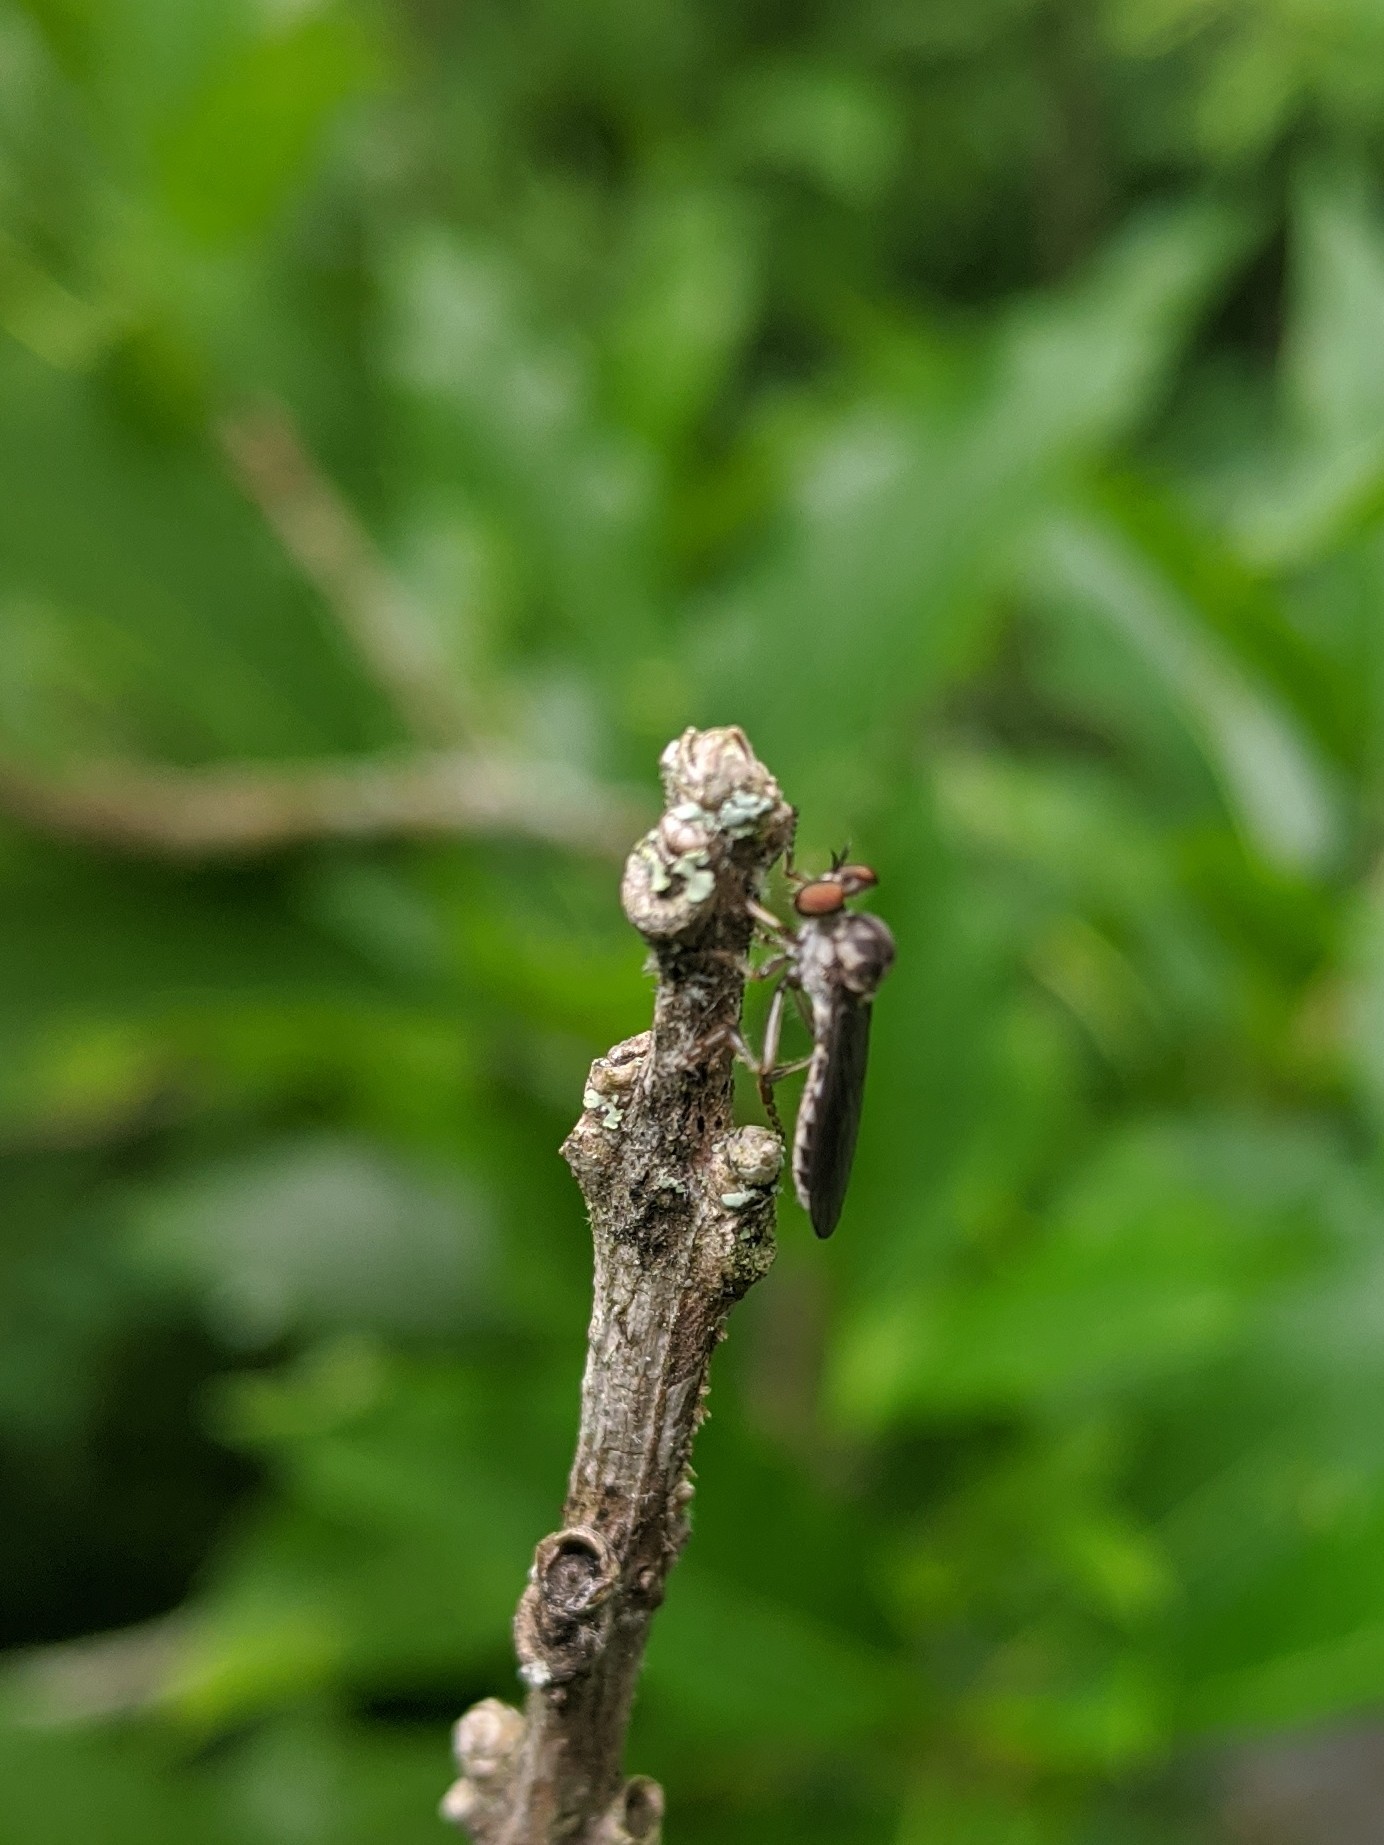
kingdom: Animalia
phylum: Arthropoda
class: Insecta
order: Diptera
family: Asilidae
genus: Holcocephala
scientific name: Holcocephala calva
